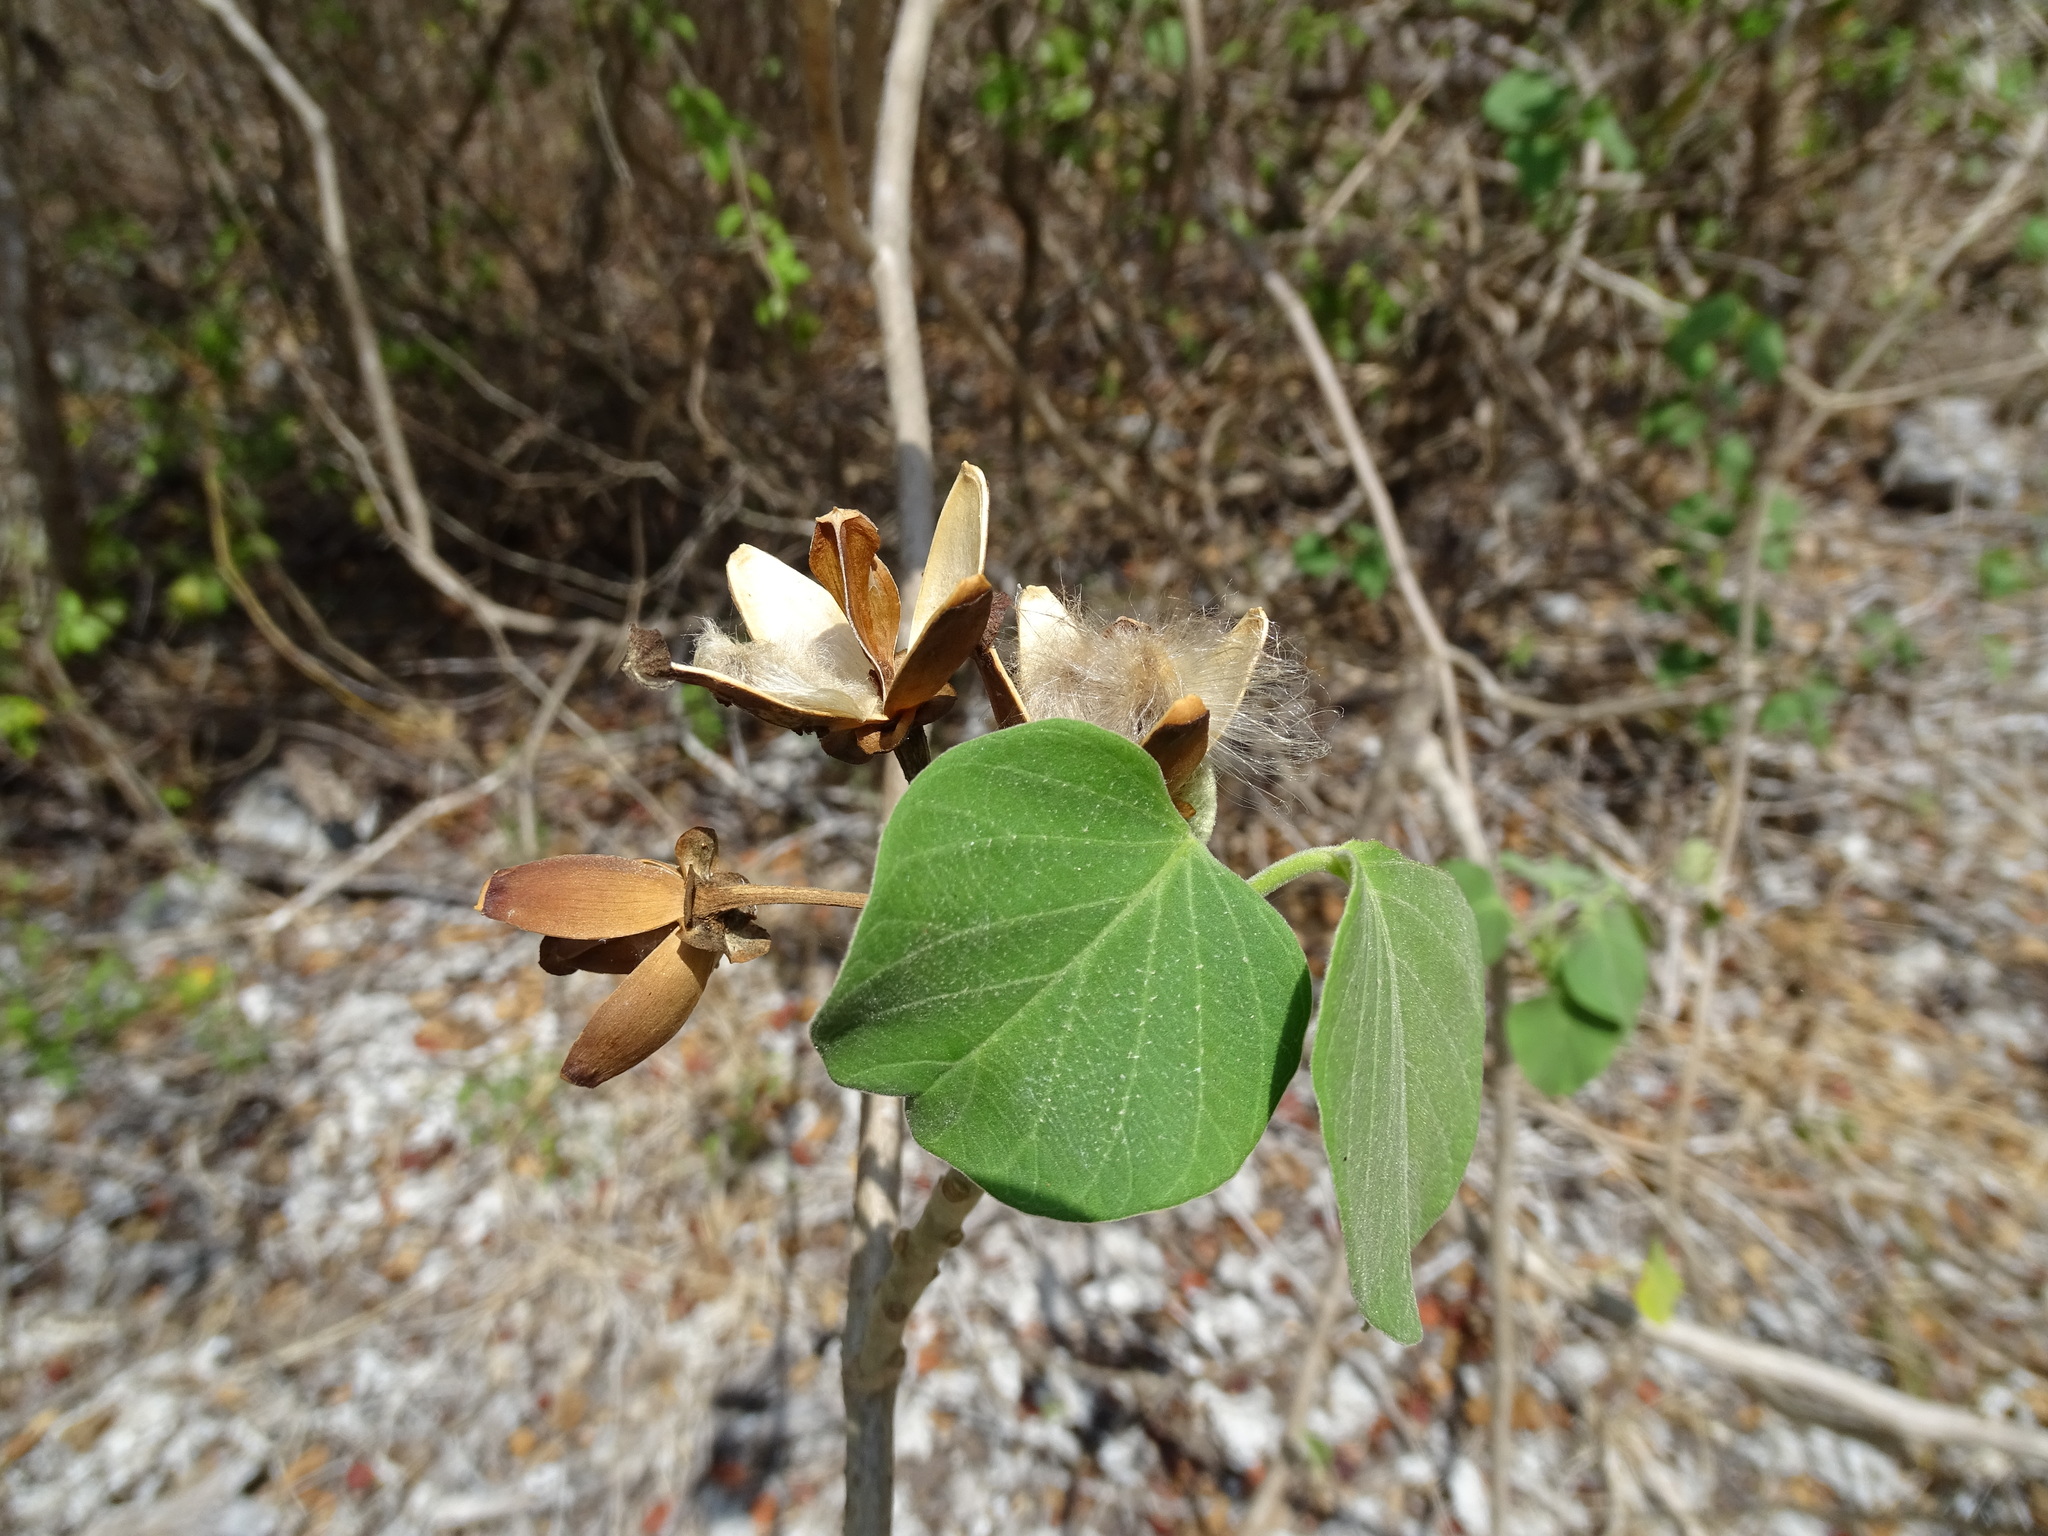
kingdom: Plantae
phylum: Tracheophyta
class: Magnoliopsida
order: Solanales
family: Convolvulaceae
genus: Ipomoea
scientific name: Ipomoea carnea
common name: Morning-glory
